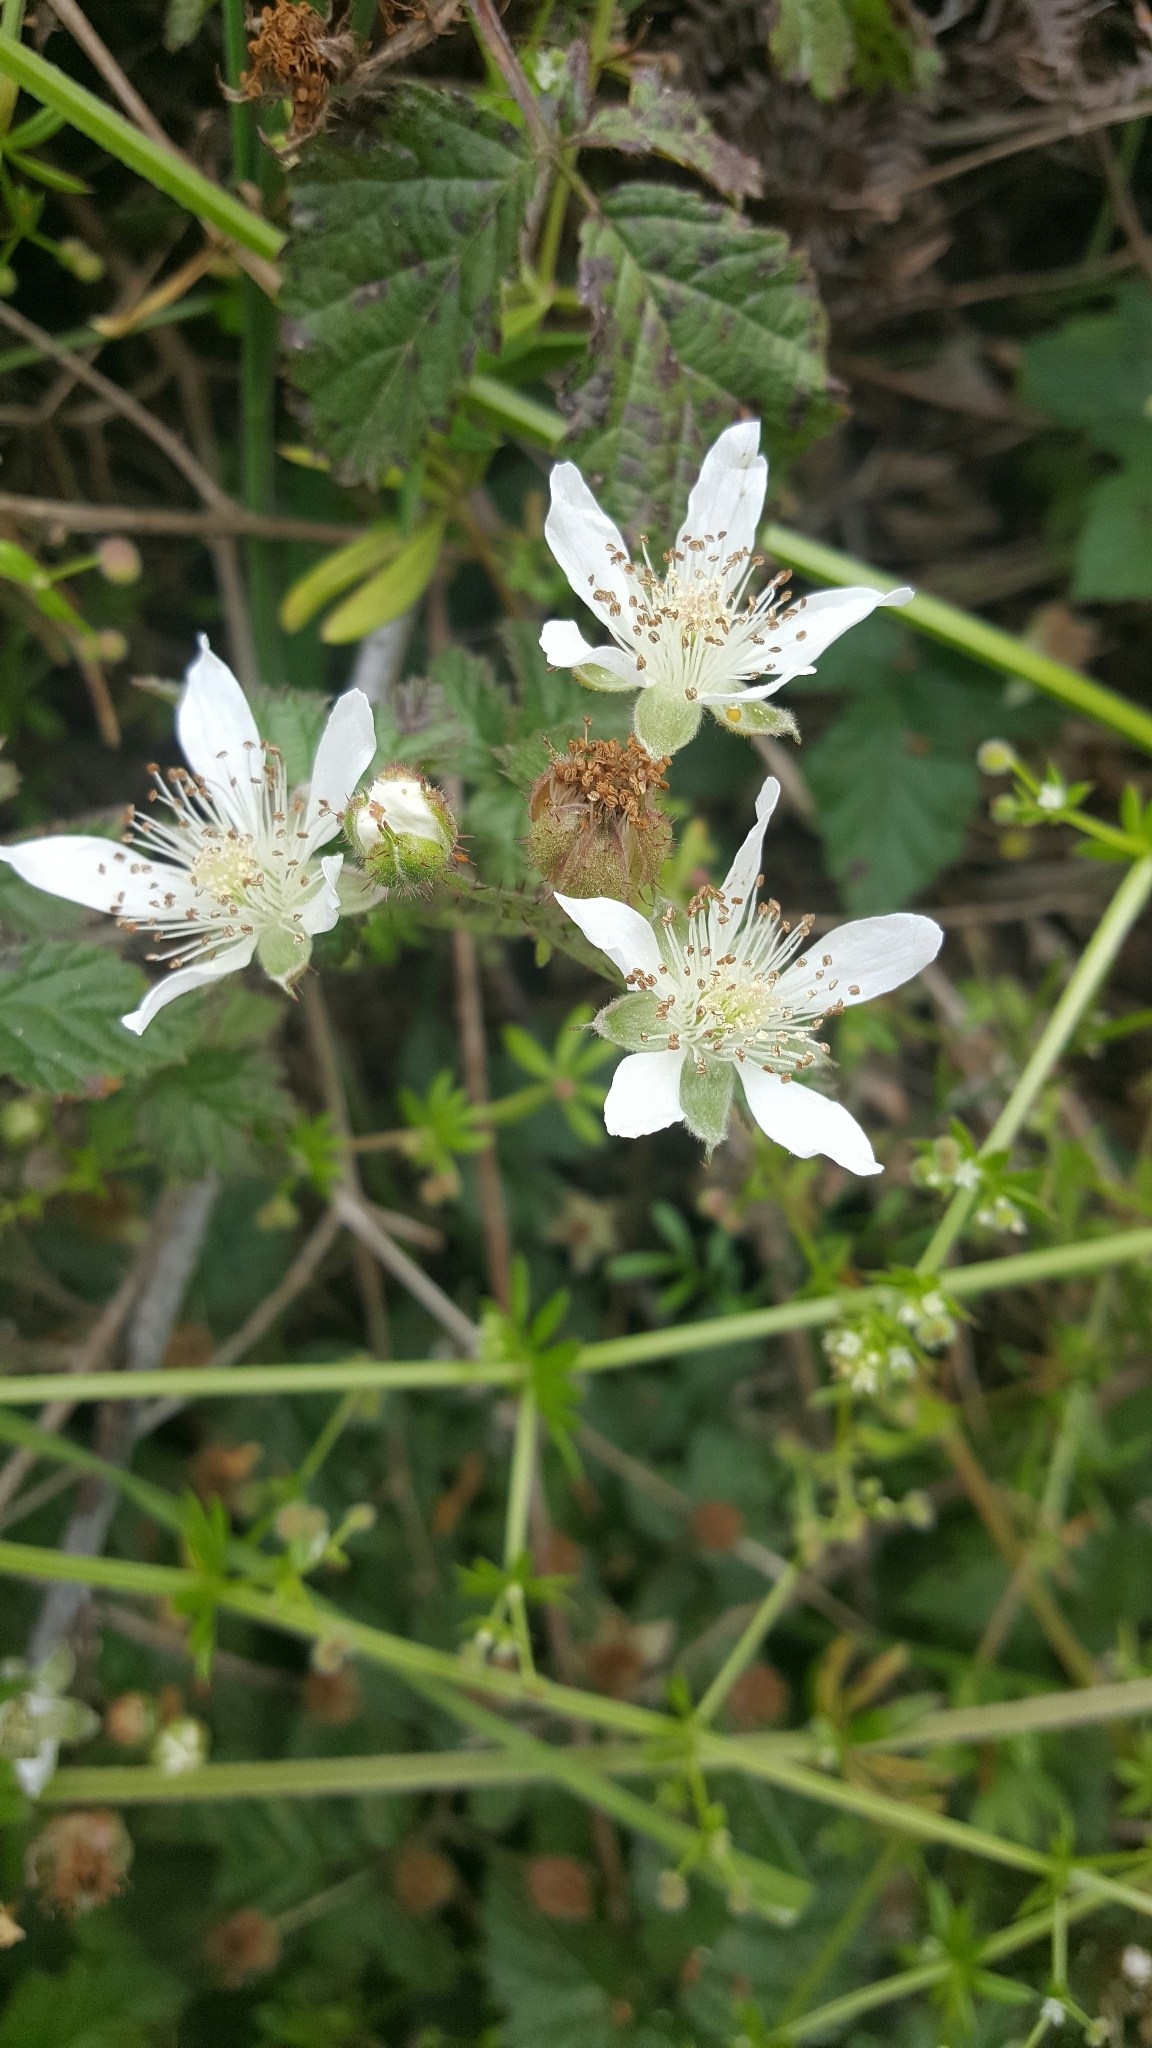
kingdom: Plantae
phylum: Tracheophyta
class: Magnoliopsida
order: Rosales
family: Rosaceae
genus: Rubus
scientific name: Rubus ursinus
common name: Pacific blackberry
